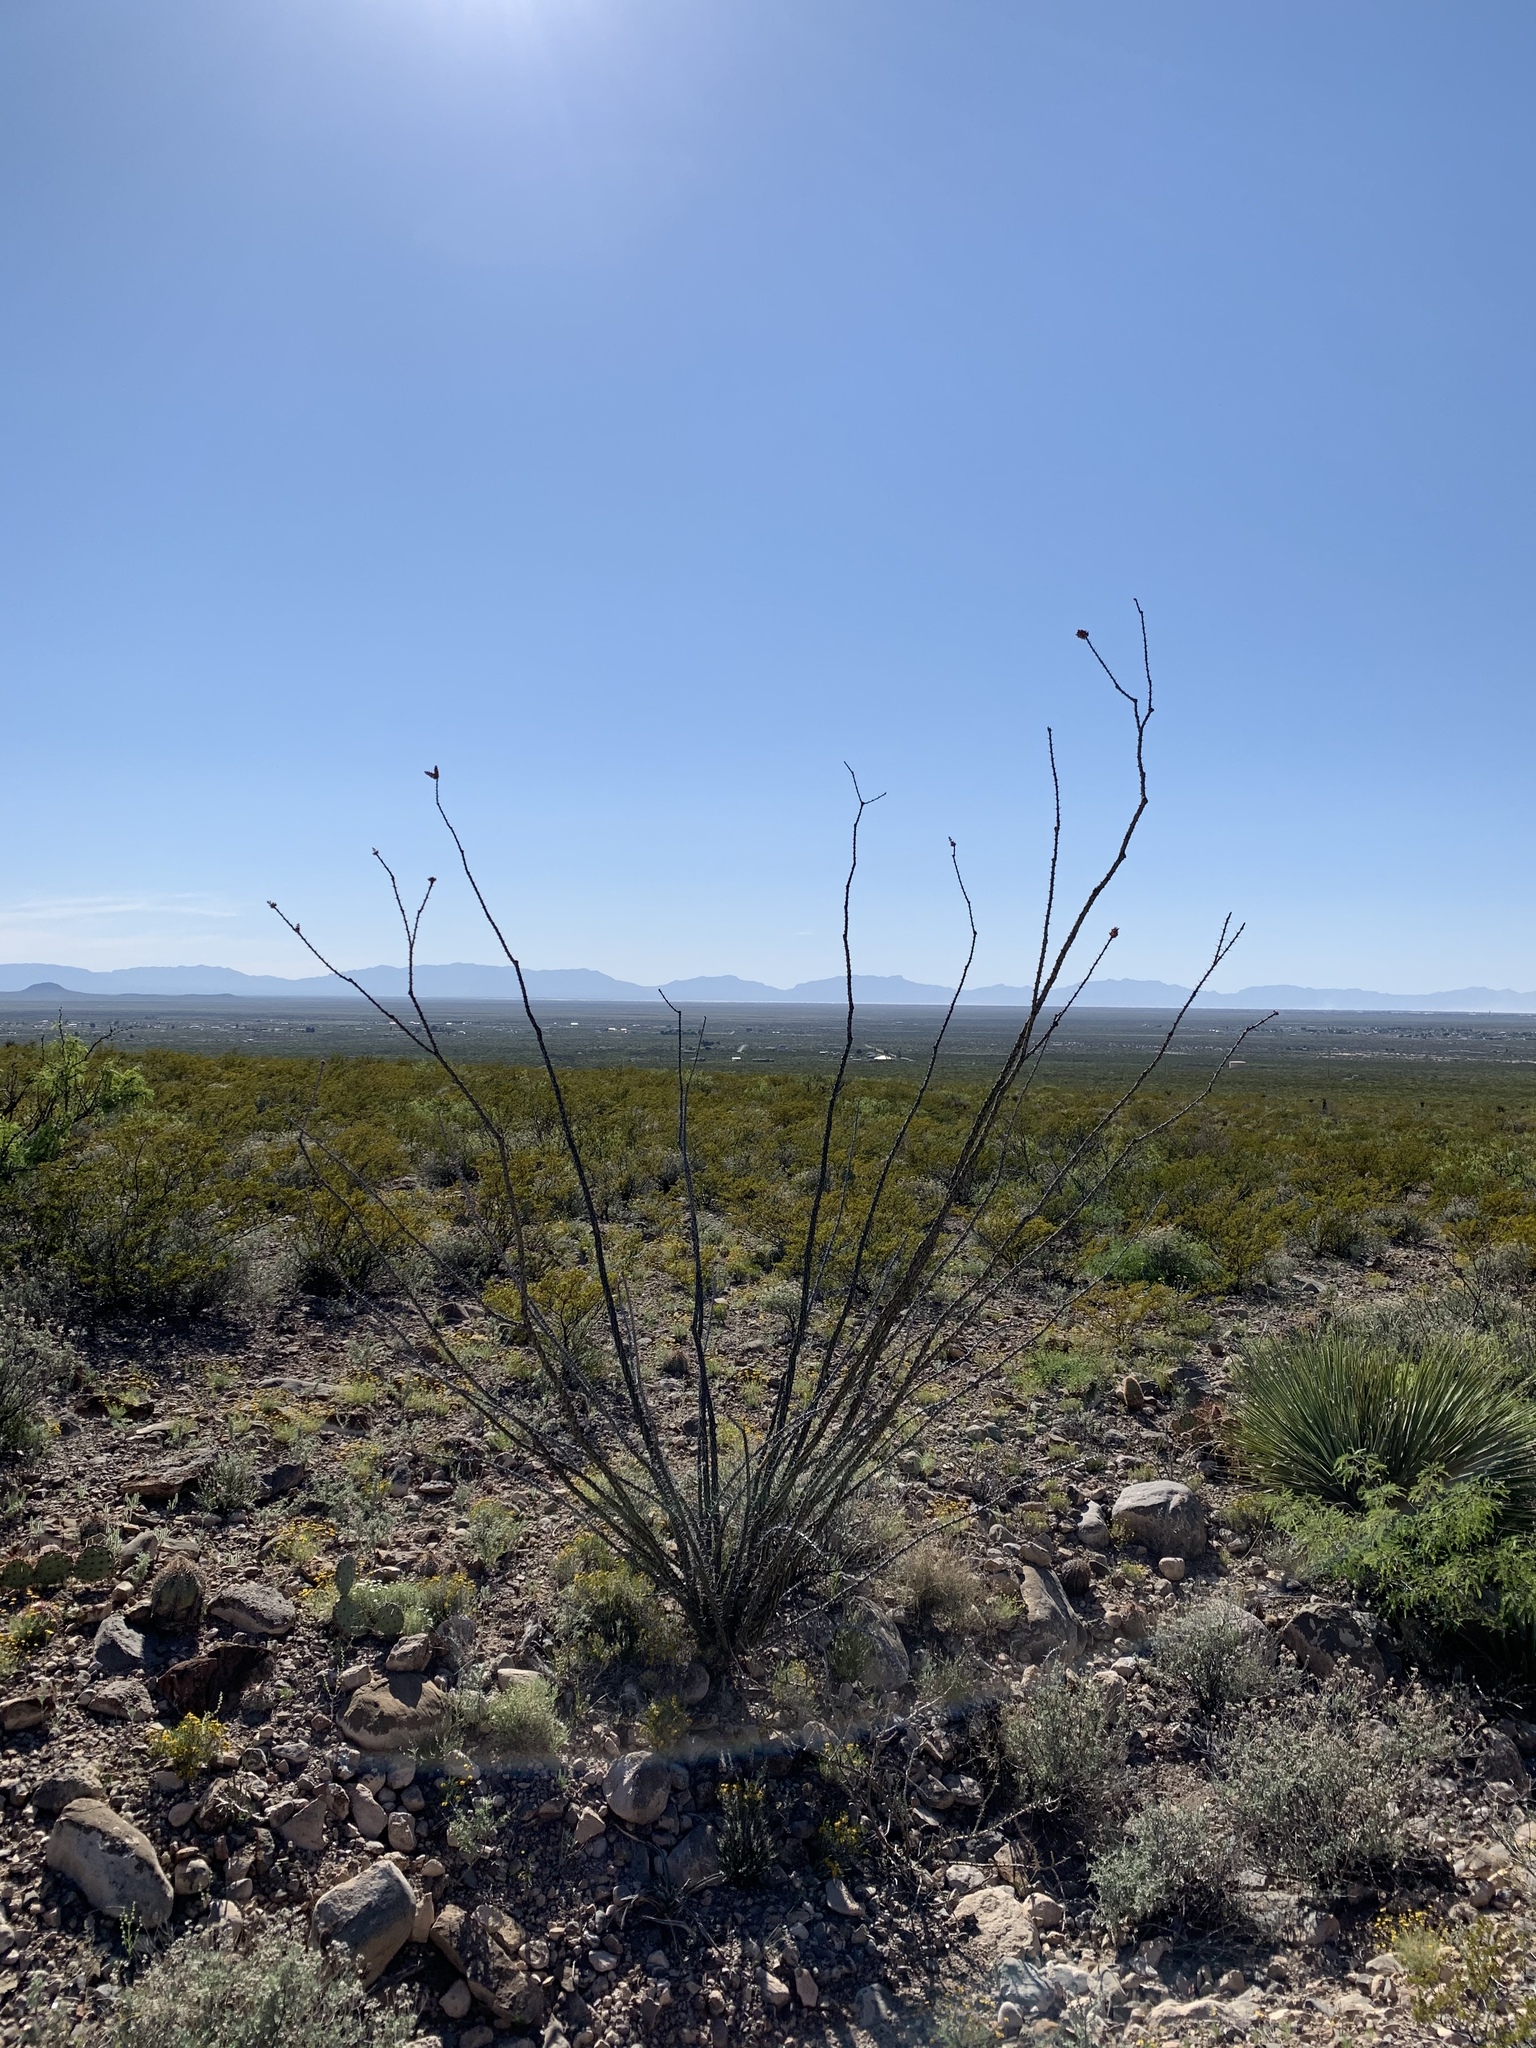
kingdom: Plantae
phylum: Tracheophyta
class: Magnoliopsida
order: Ericales
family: Fouquieriaceae
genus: Fouquieria
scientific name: Fouquieria splendens
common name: Vine-cactus
